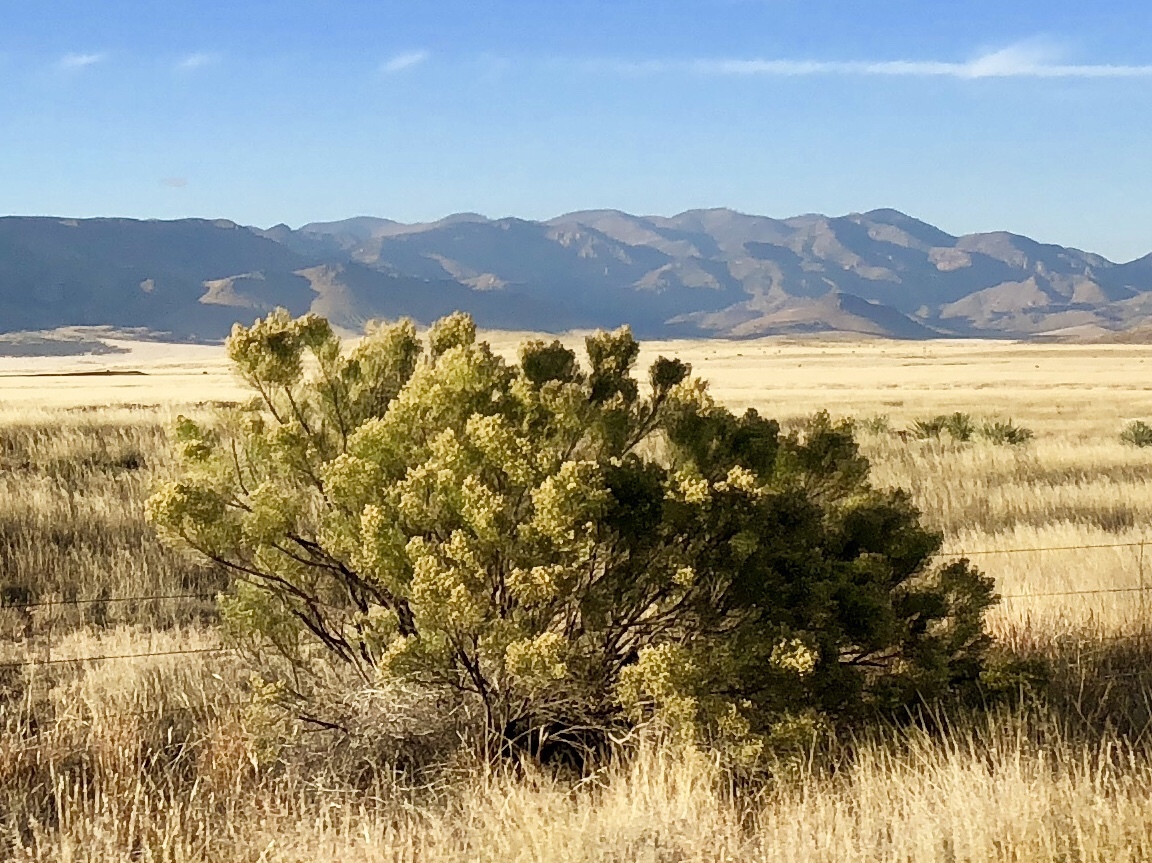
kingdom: Plantae
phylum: Tracheophyta
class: Magnoliopsida
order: Asterales
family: Asteraceae
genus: Baccharis
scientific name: Baccharis sarothroides
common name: Desert-broom
